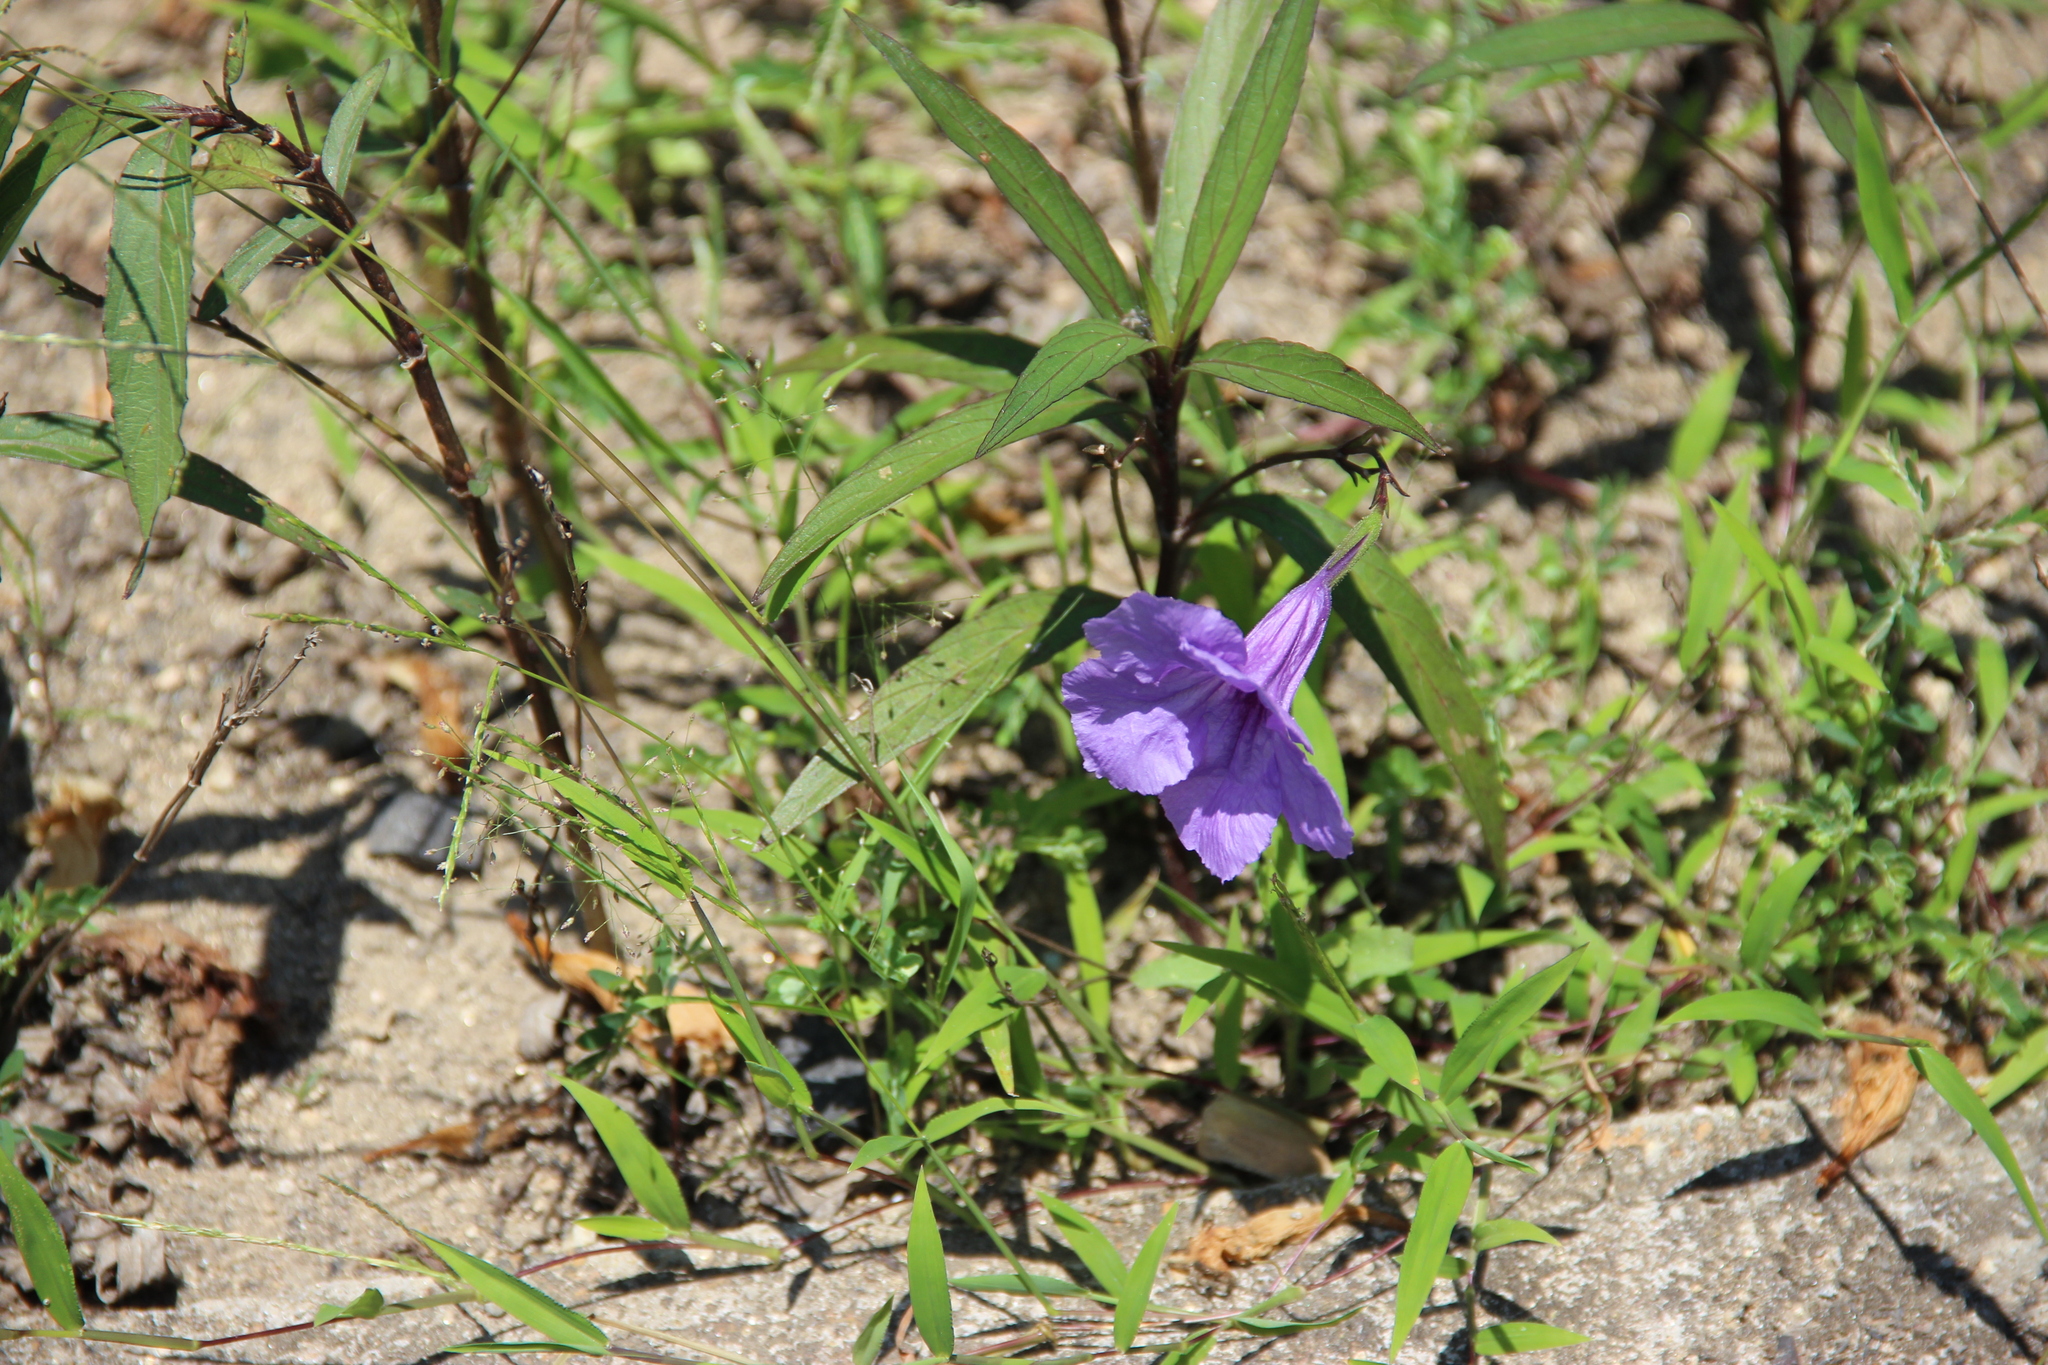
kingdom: Plantae
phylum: Tracheophyta
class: Magnoliopsida
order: Lamiales
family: Acanthaceae
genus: Ruellia
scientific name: Ruellia simplex
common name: Softseed wild petunia
